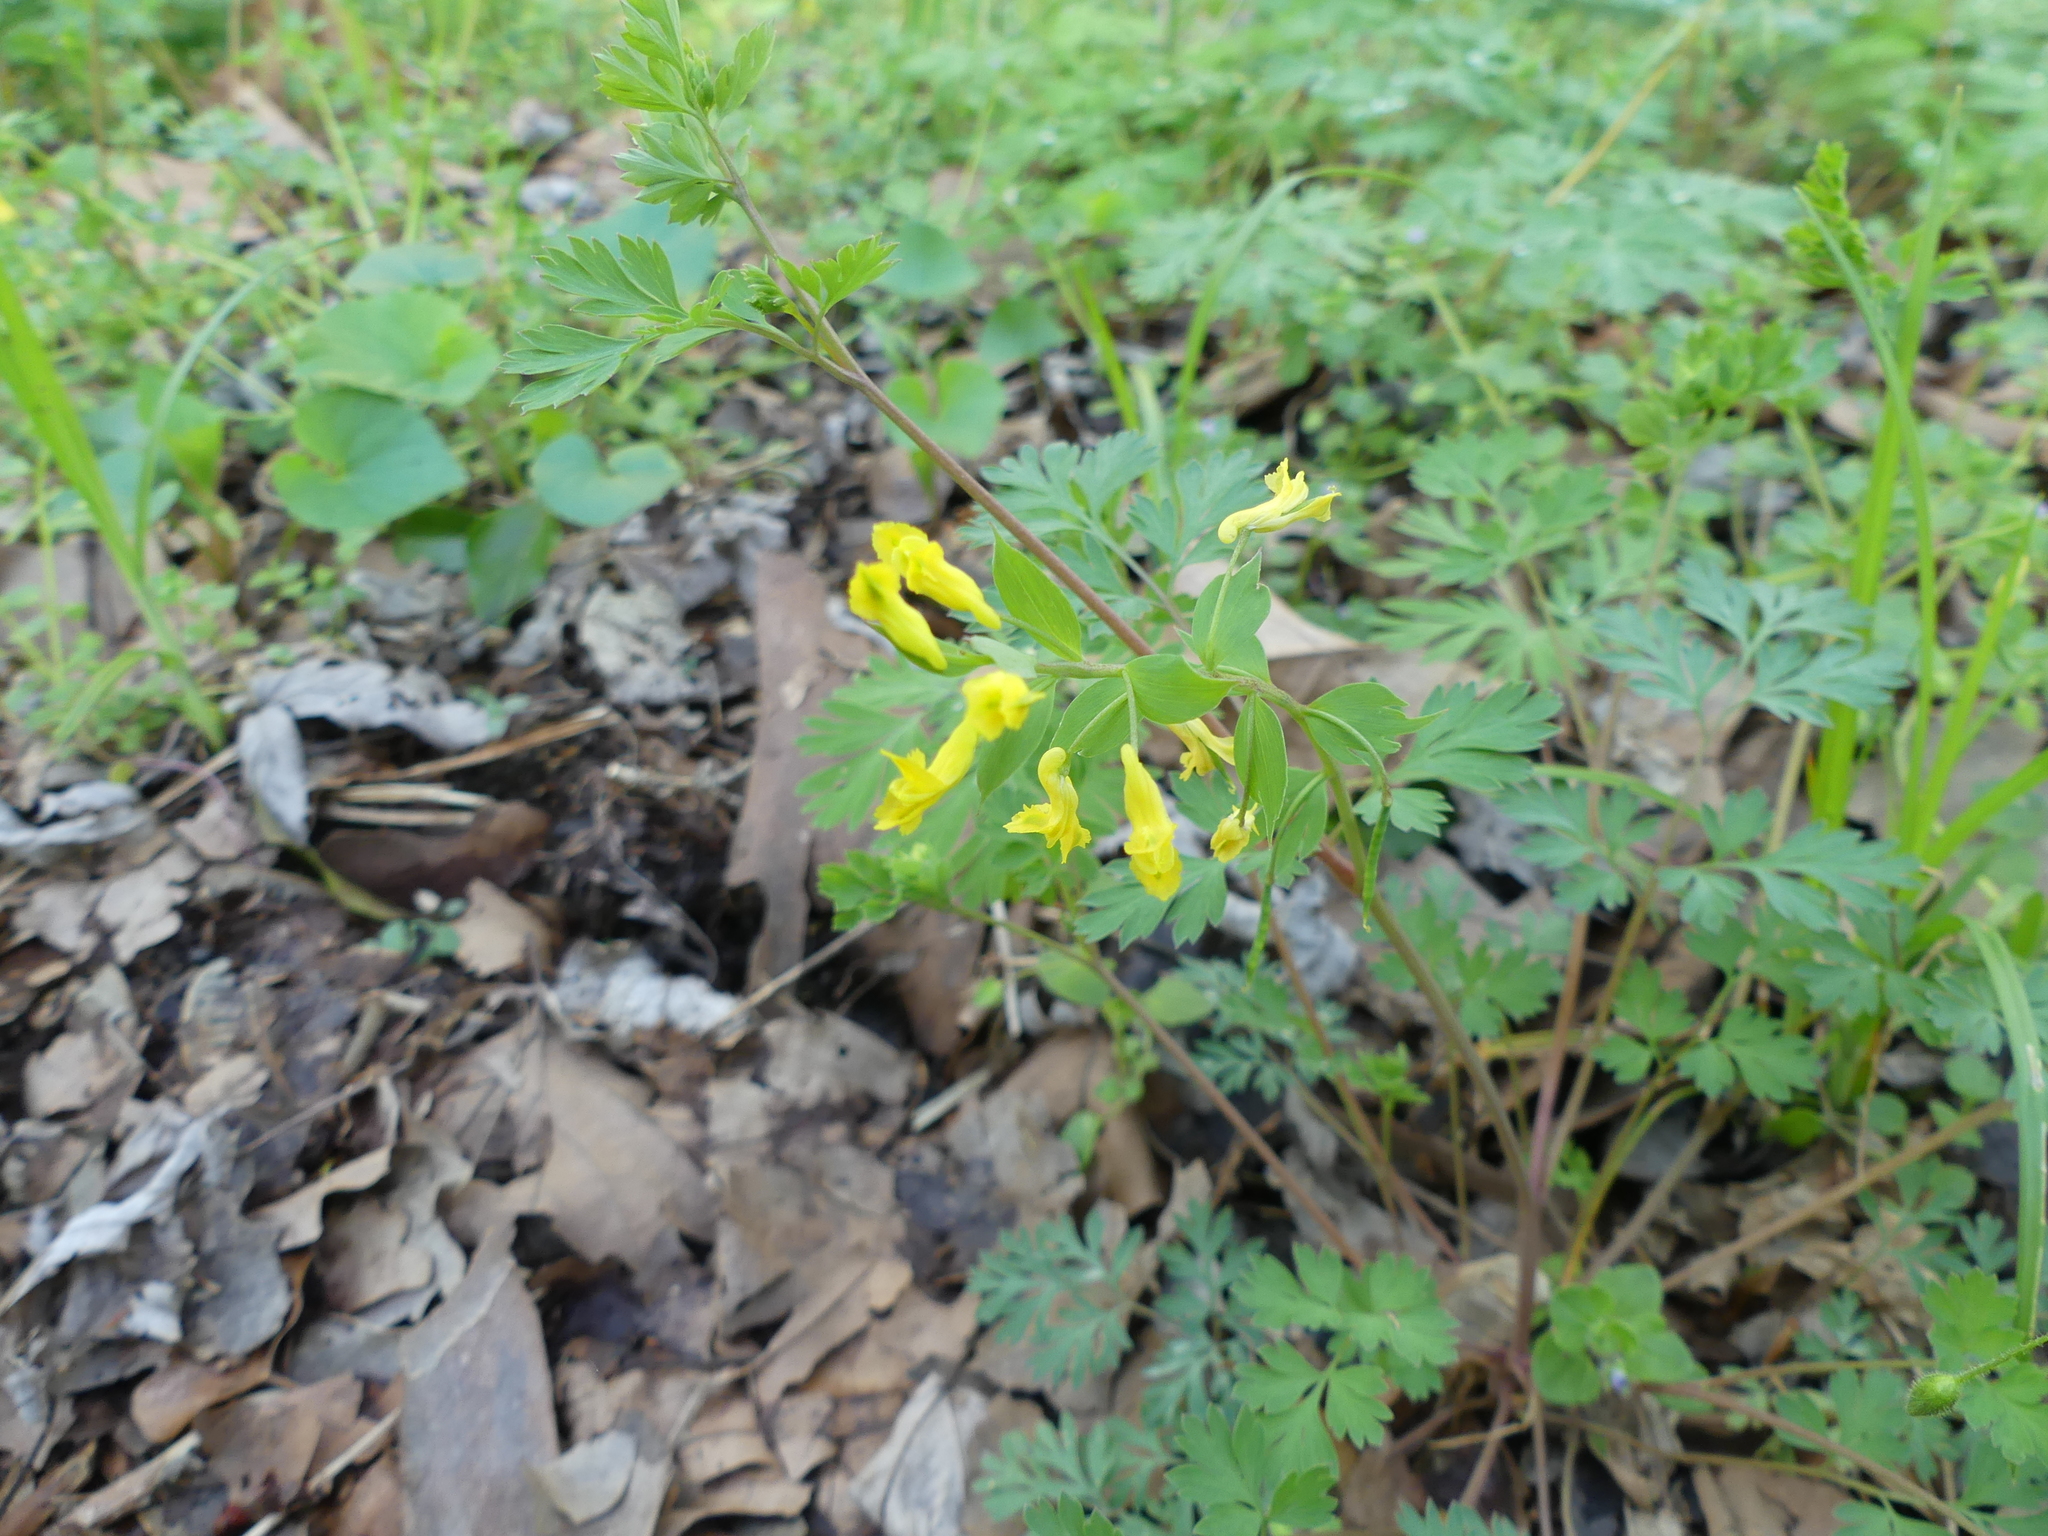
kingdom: Plantae
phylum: Tracheophyta
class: Magnoliopsida
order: Ranunculales
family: Papaveraceae
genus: Corydalis
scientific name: Corydalis flavula
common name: Yellow corydalis
